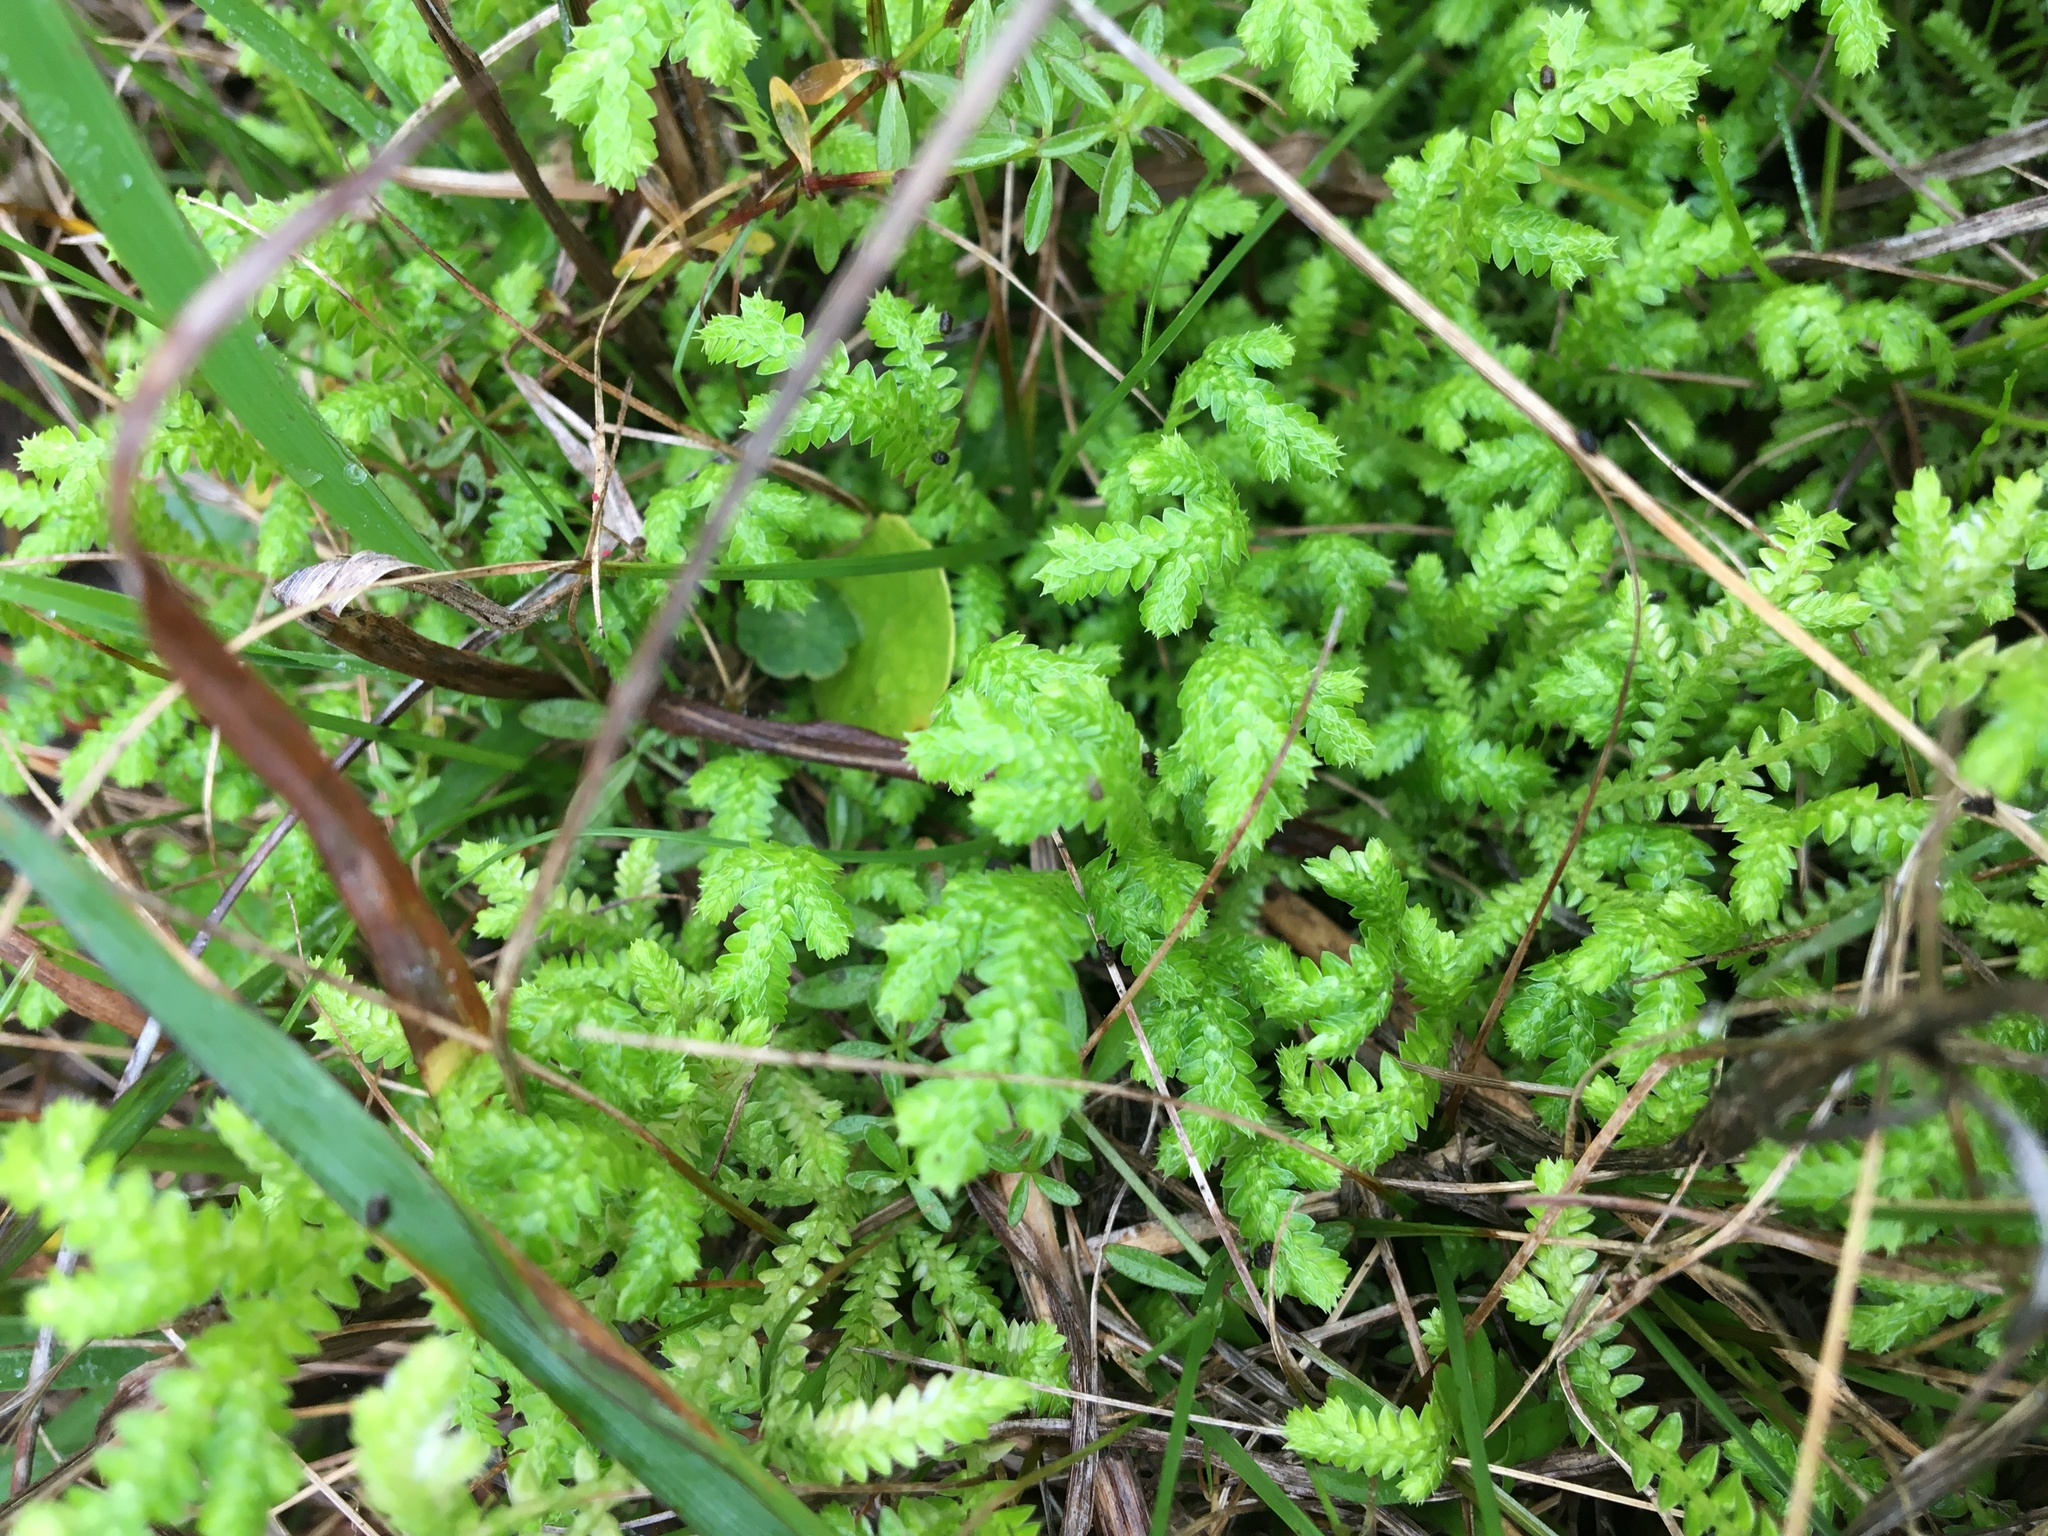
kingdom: Plantae
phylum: Tracheophyta
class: Lycopodiopsida
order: Selaginellales
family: Selaginellaceae
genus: Selaginella
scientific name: Selaginella ludoviciana
